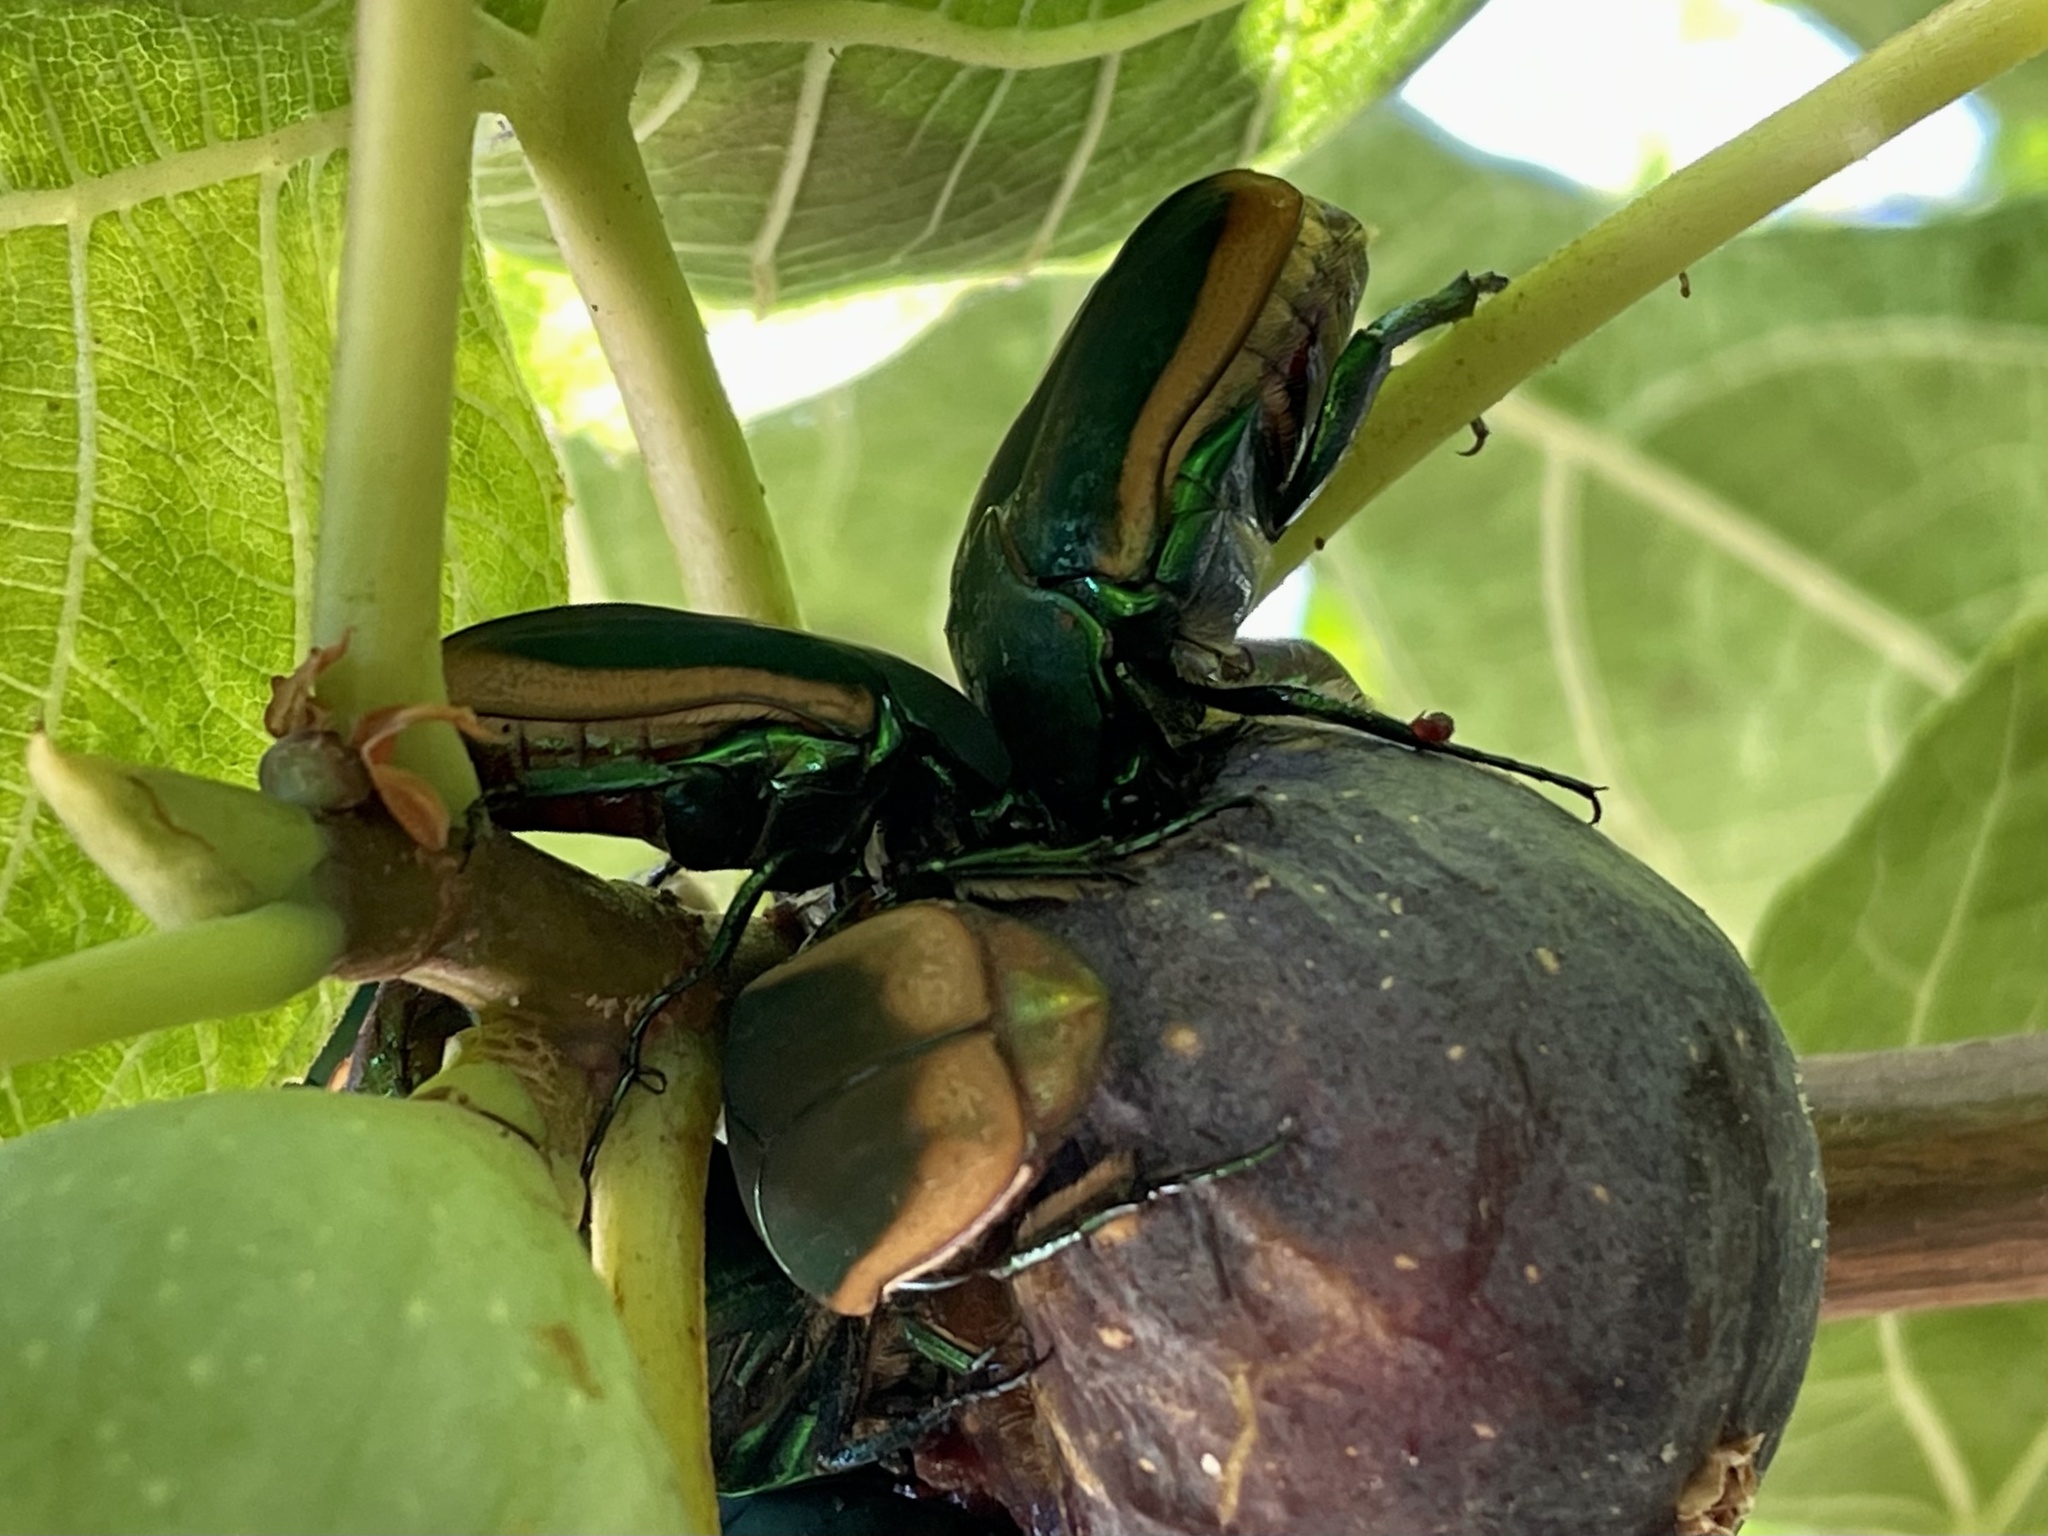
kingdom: Animalia
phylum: Arthropoda
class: Insecta
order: Coleoptera
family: Scarabaeidae
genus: Cotinis
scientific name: Cotinis mutabilis
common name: Figeater beetle
